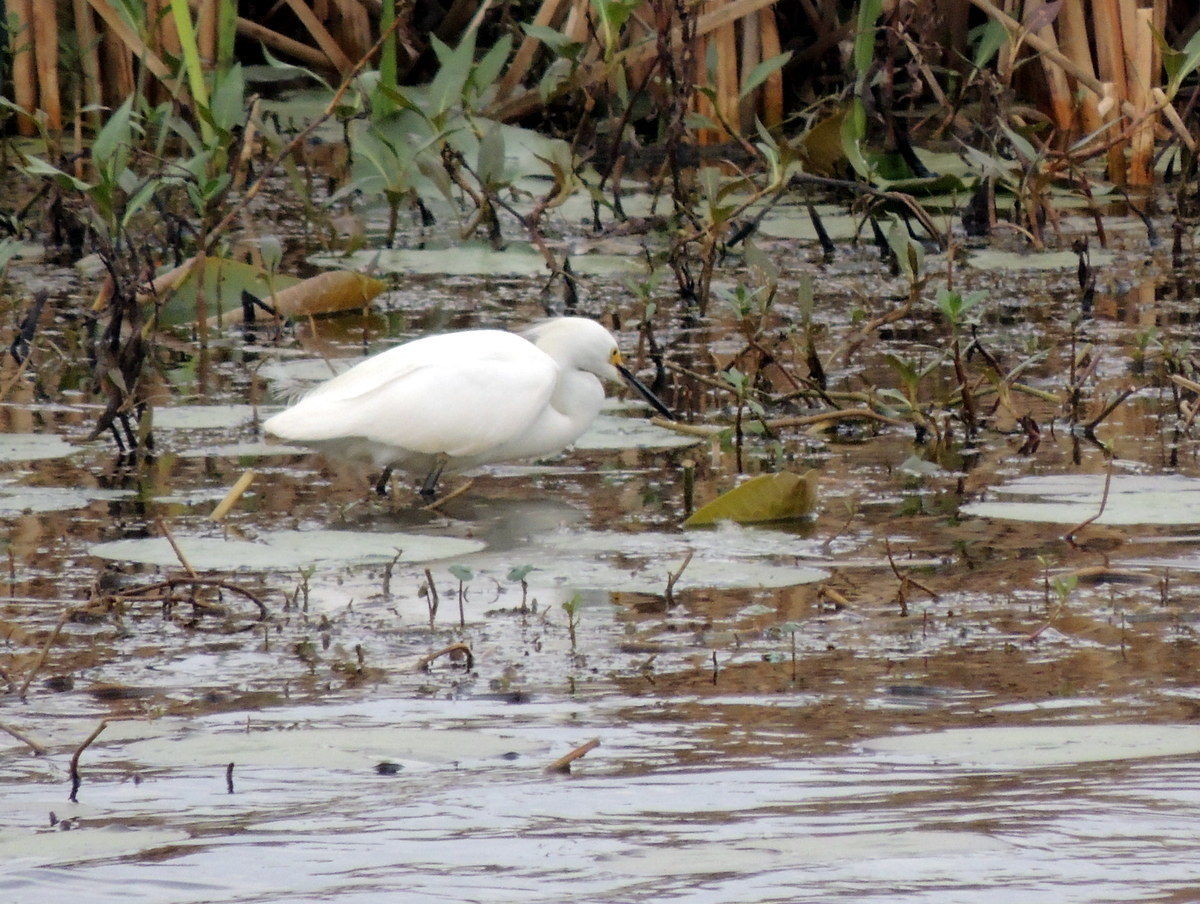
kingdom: Animalia
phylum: Chordata
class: Aves
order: Pelecaniformes
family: Ardeidae
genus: Egretta
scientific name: Egretta thula
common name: Snowy egret
